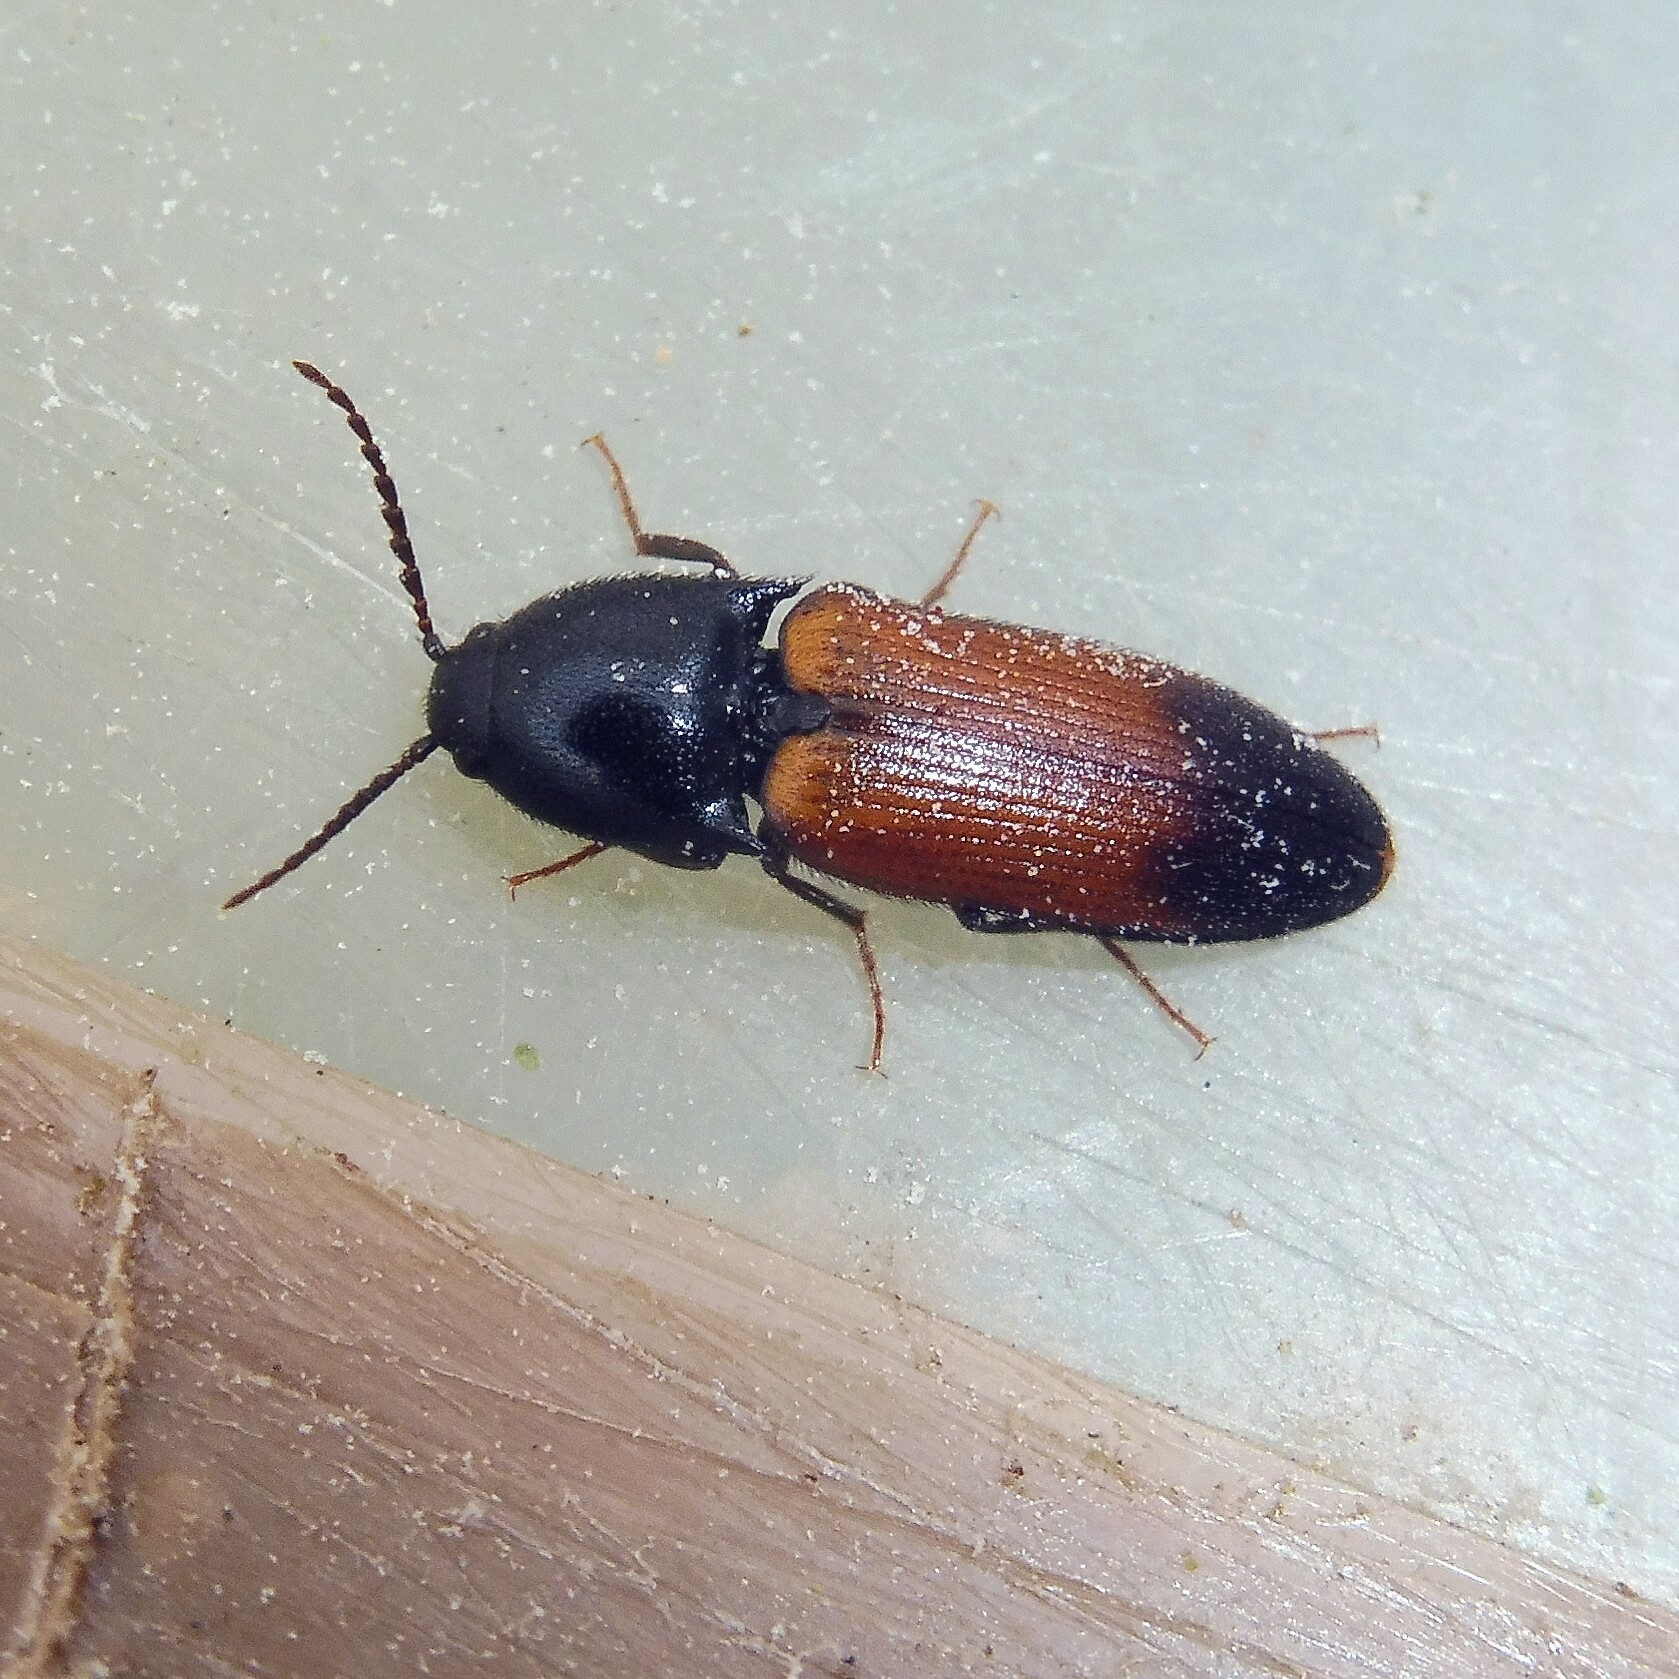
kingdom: Animalia
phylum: Arthropoda
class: Insecta
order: Coleoptera
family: Elateridae
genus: Ampedus
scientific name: Ampedus balteatus
